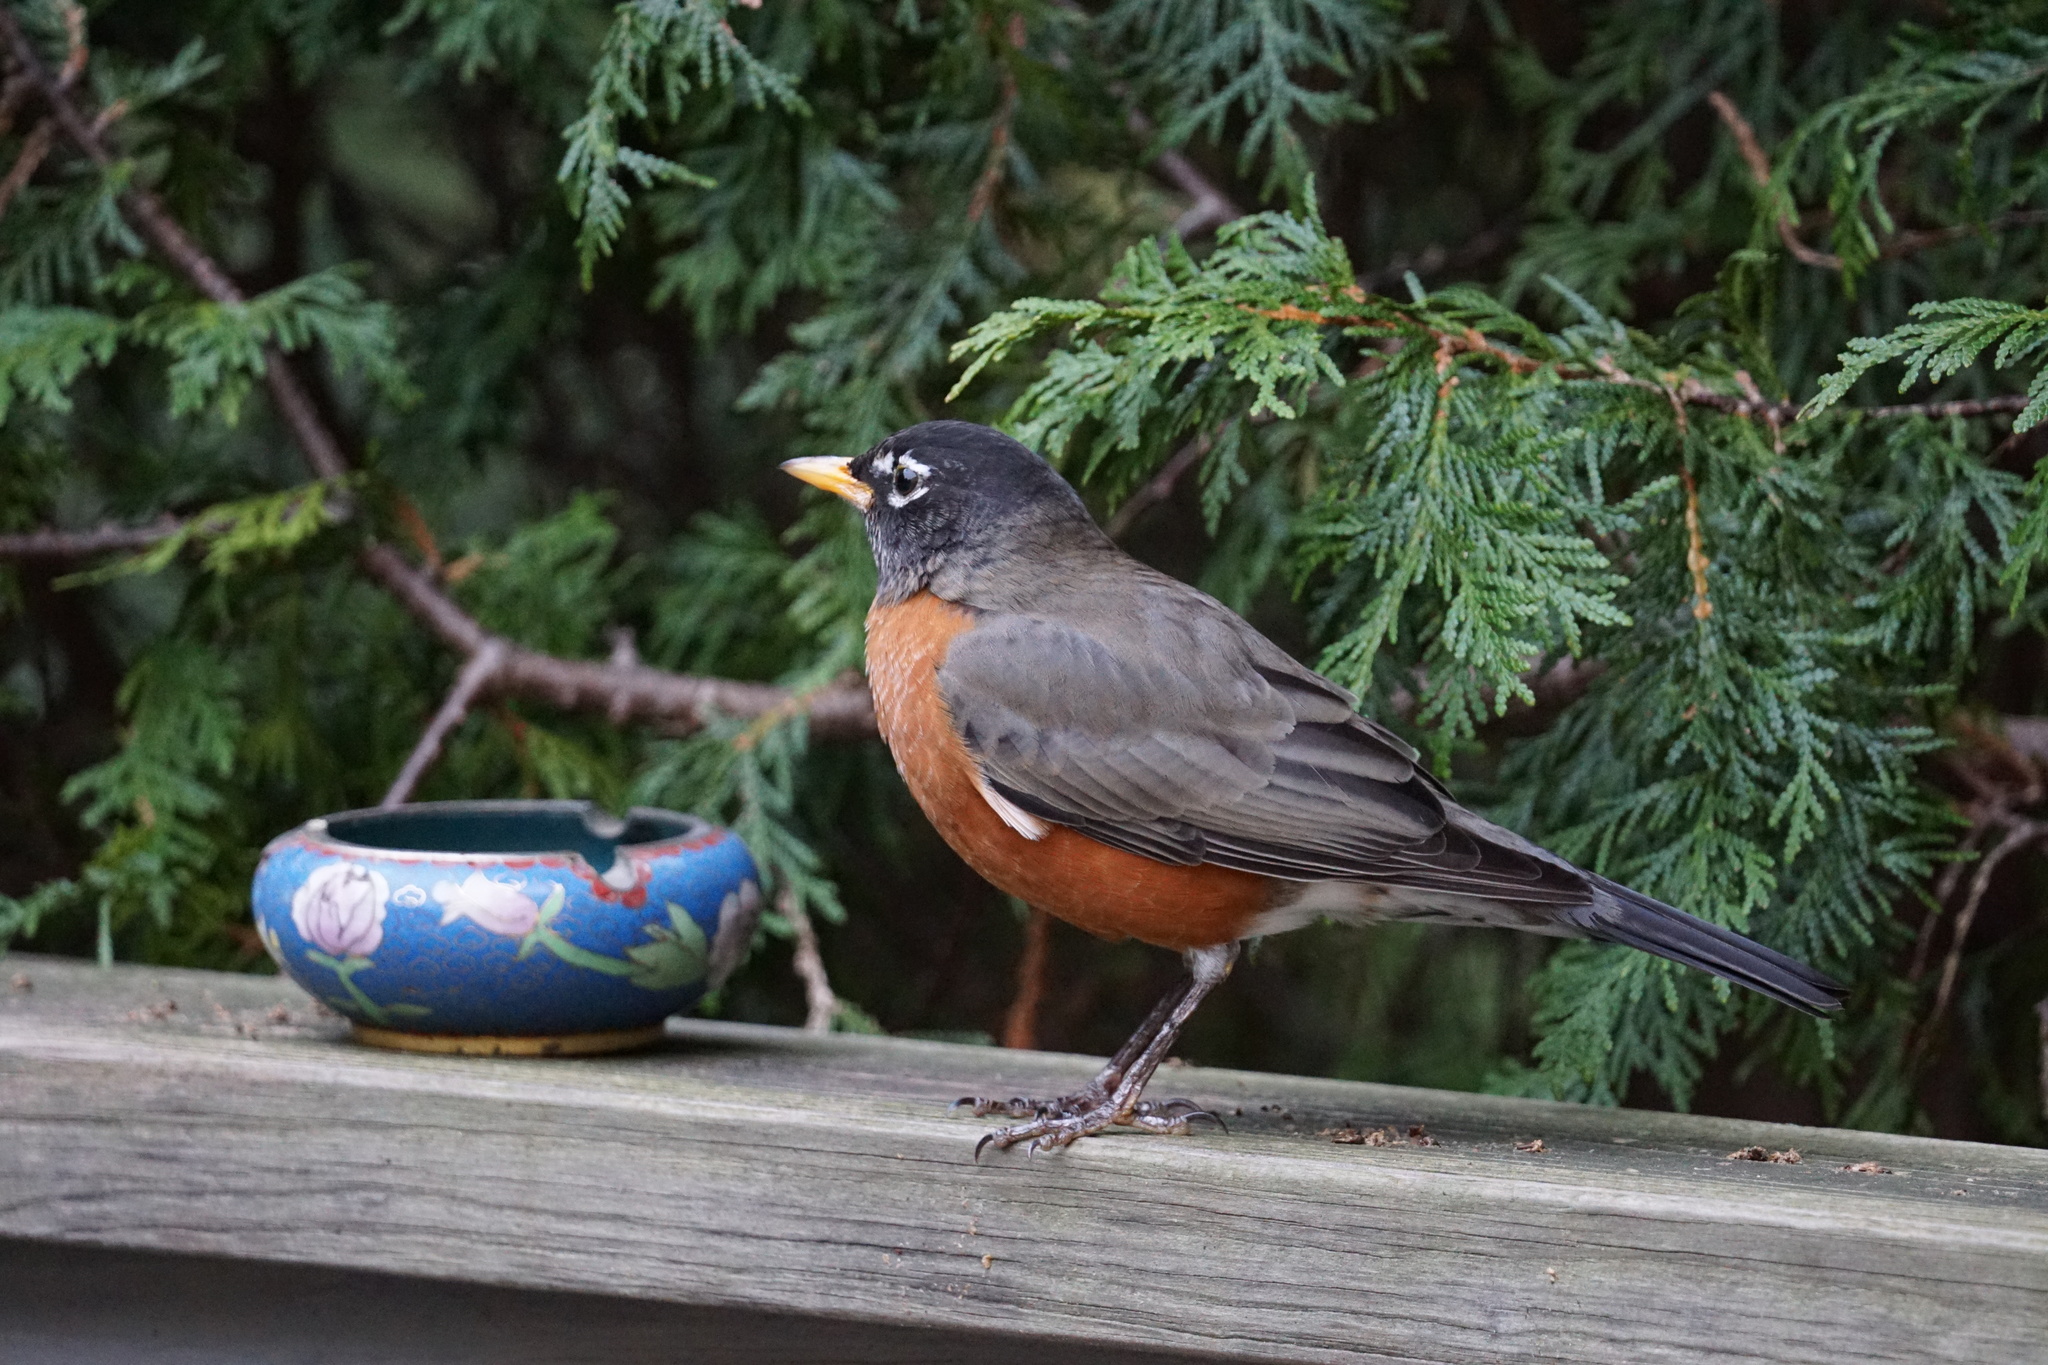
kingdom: Animalia
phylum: Chordata
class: Aves
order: Passeriformes
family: Turdidae
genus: Turdus
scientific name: Turdus migratorius
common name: American robin
